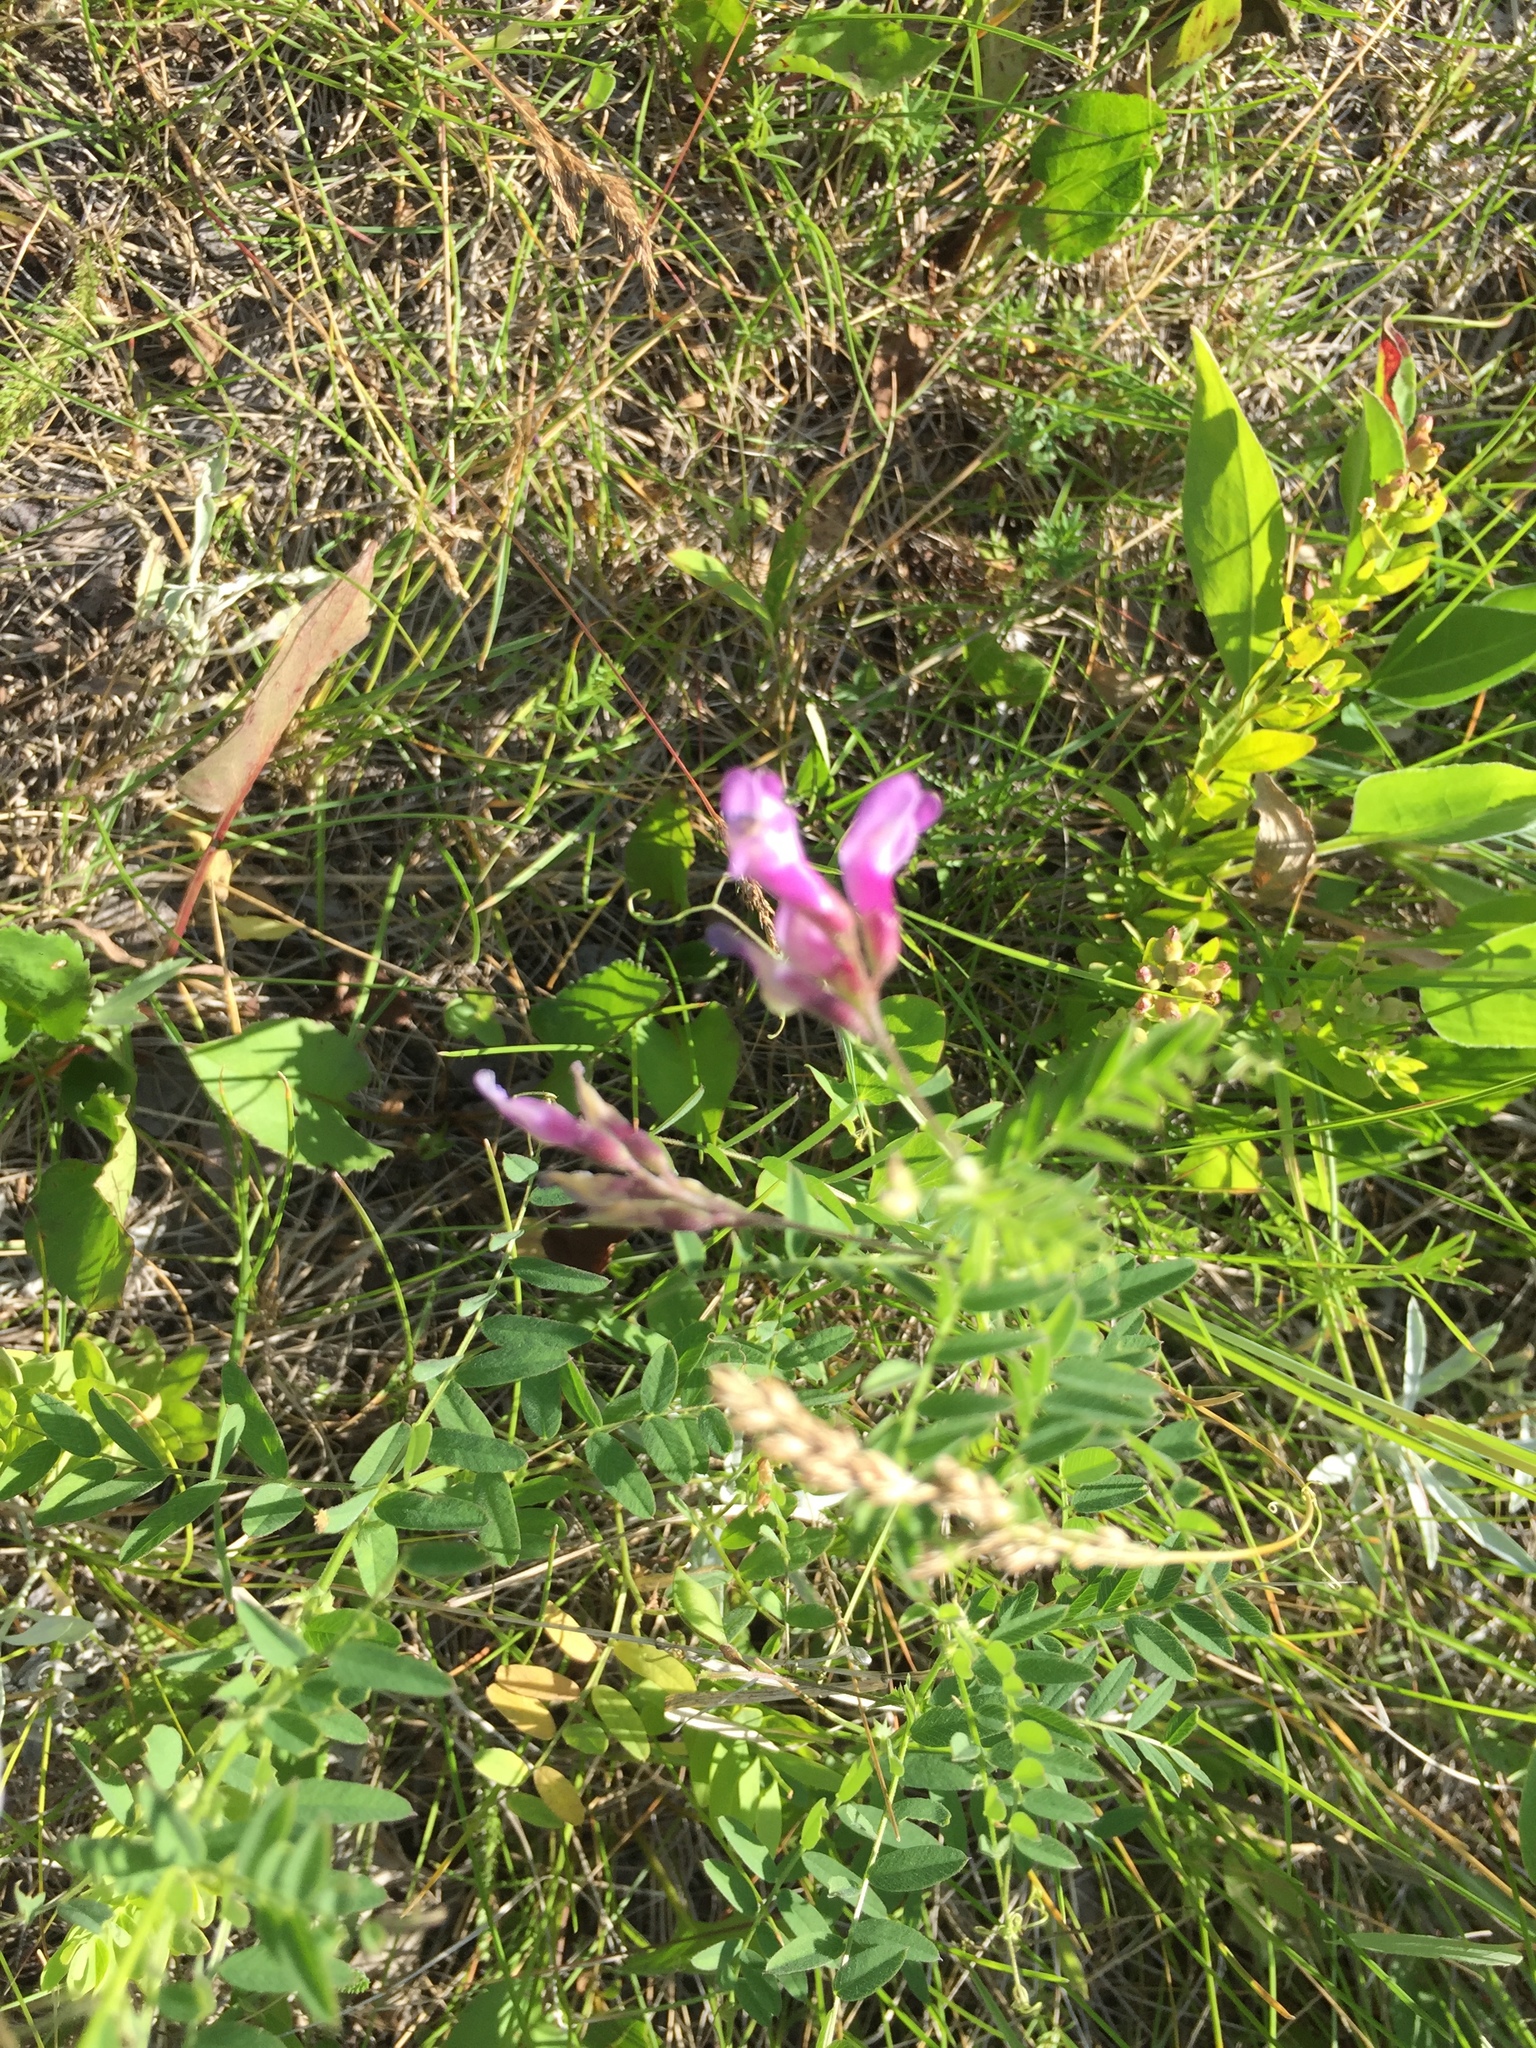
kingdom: Plantae
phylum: Tracheophyta
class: Magnoliopsida
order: Fabales
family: Fabaceae
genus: Vicia
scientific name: Vicia americana
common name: American vetch
